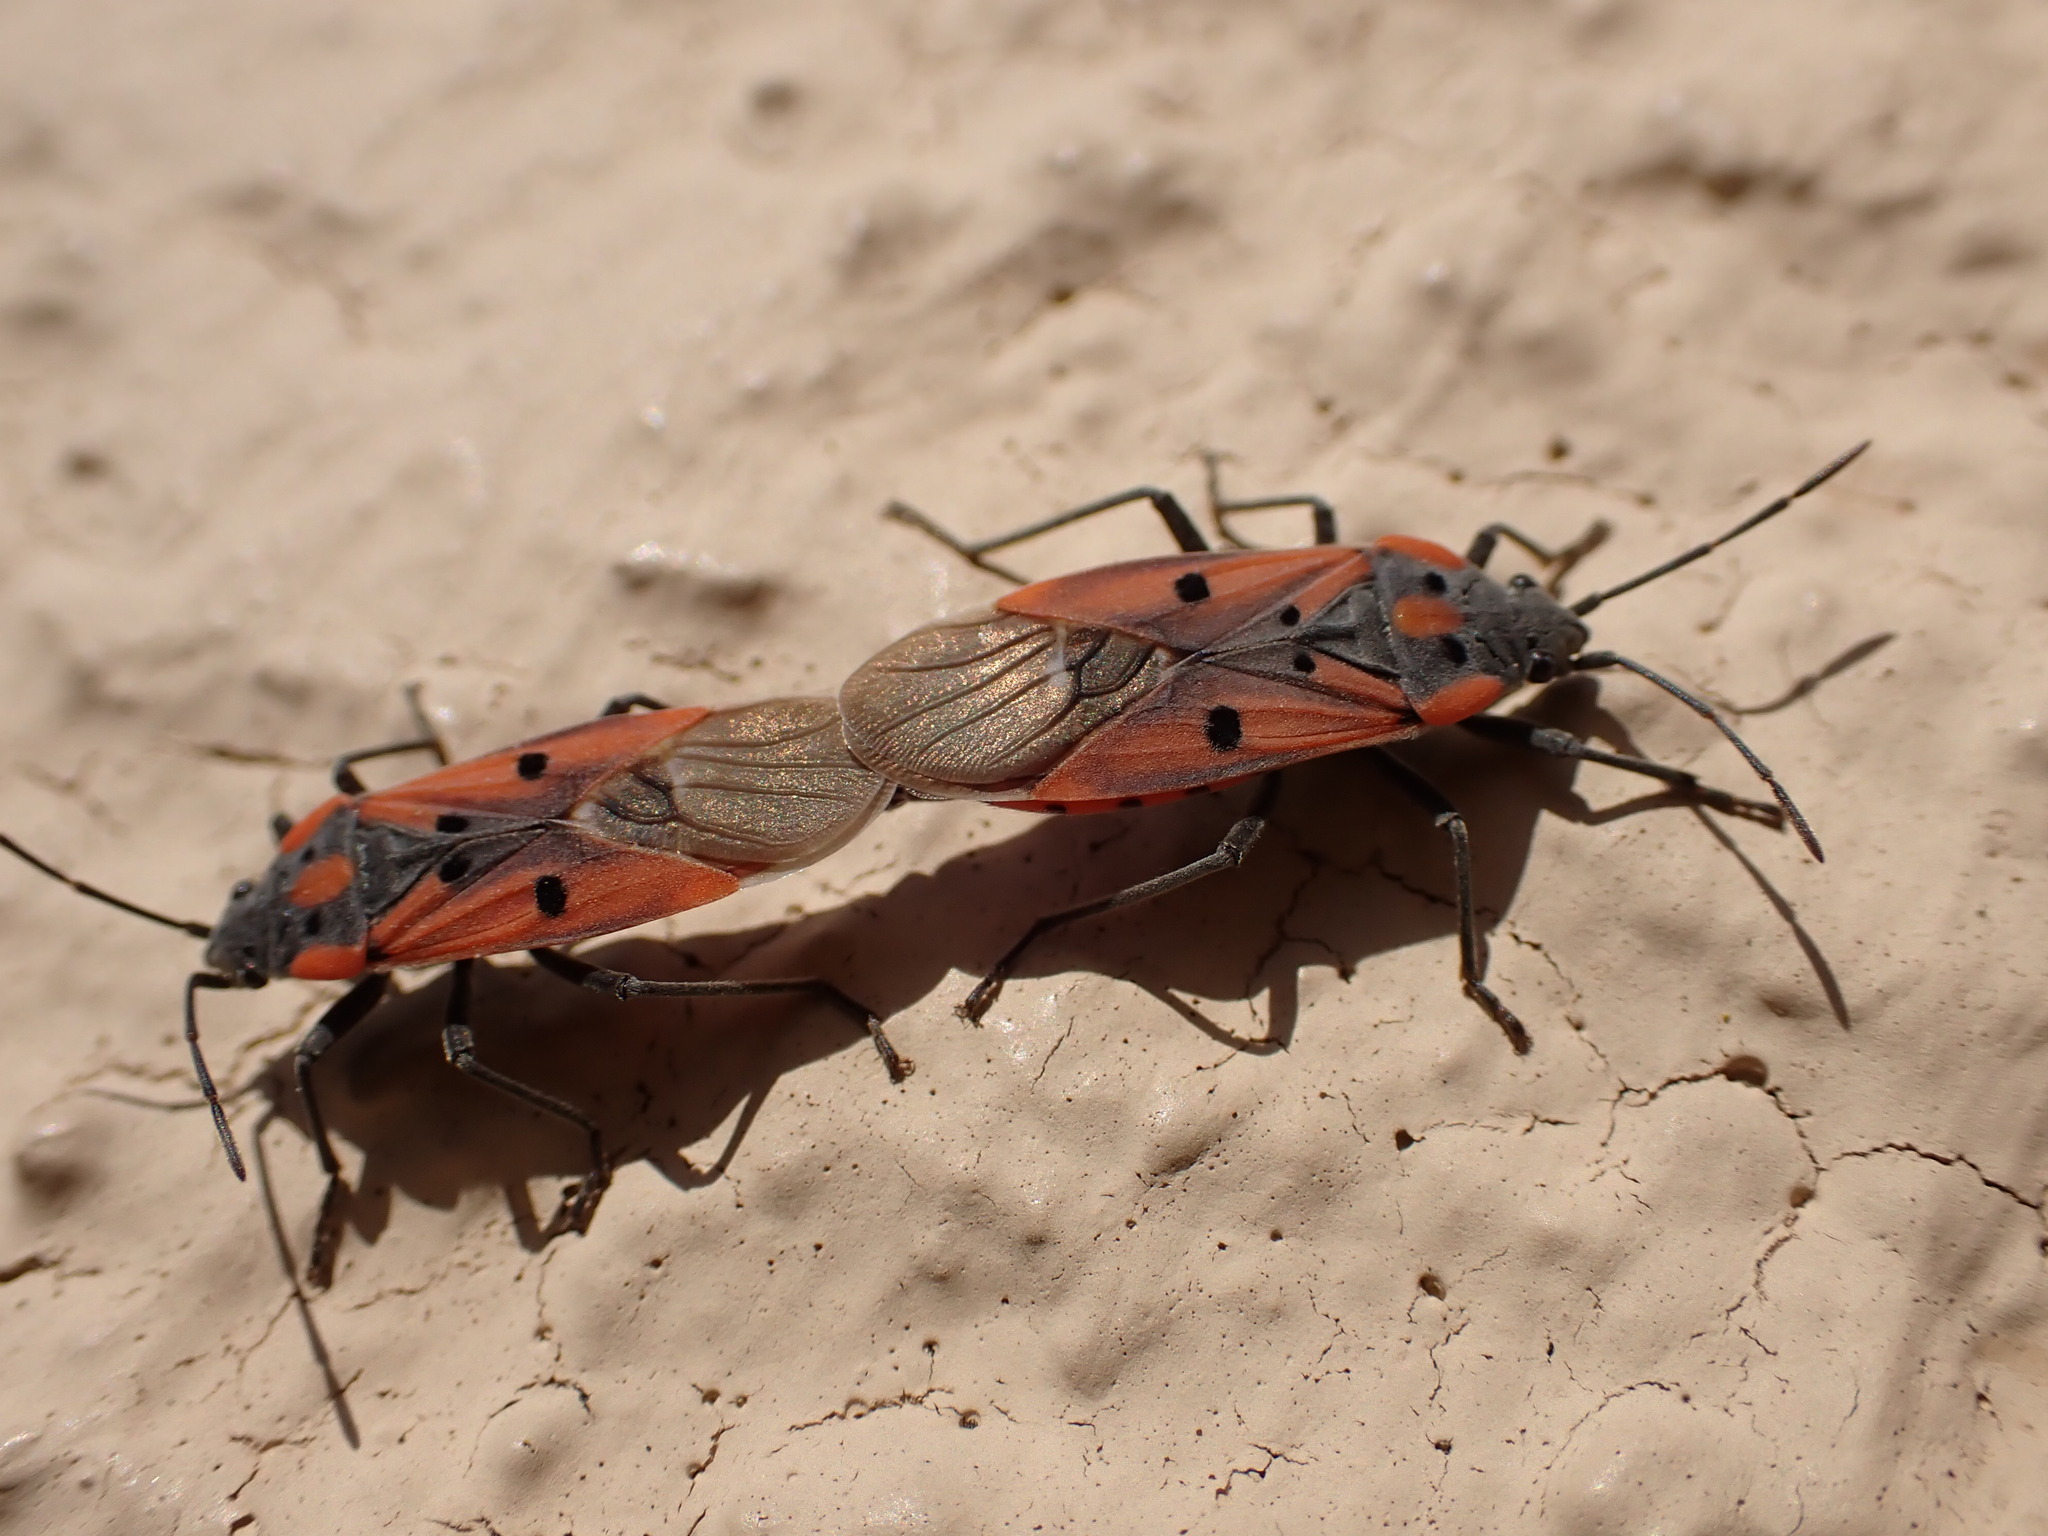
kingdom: Animalia
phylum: Arthropoda
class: Insecta
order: Hemiptera
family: Lygaeidae
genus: Lygaeus
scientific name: Lygaeus creticus
